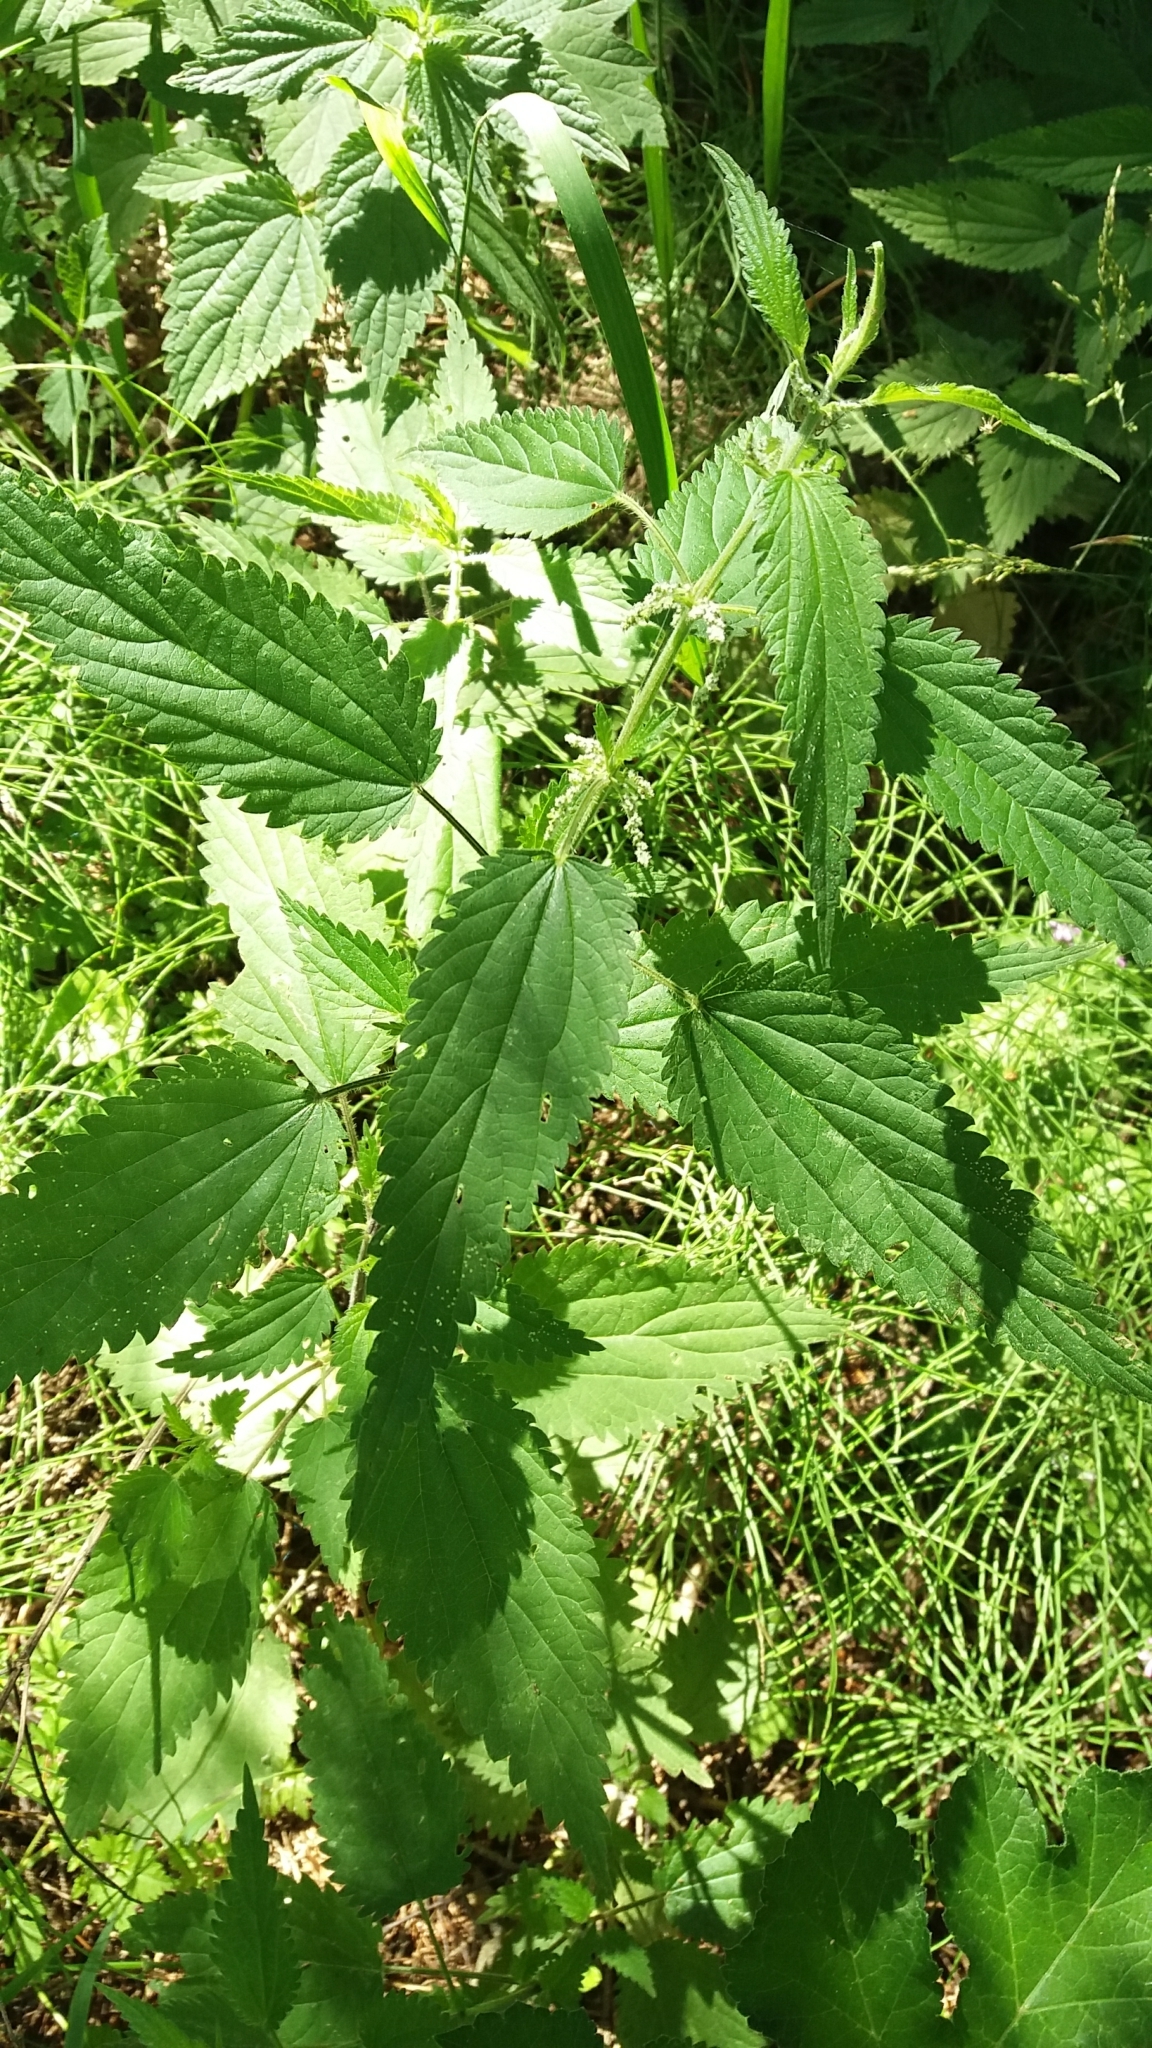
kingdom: Plantae
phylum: Tracheophyta
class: Magnoliopsida
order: Rosales
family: Urticaceae
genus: Urtica
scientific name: Urtica dioica
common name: Common nettle
